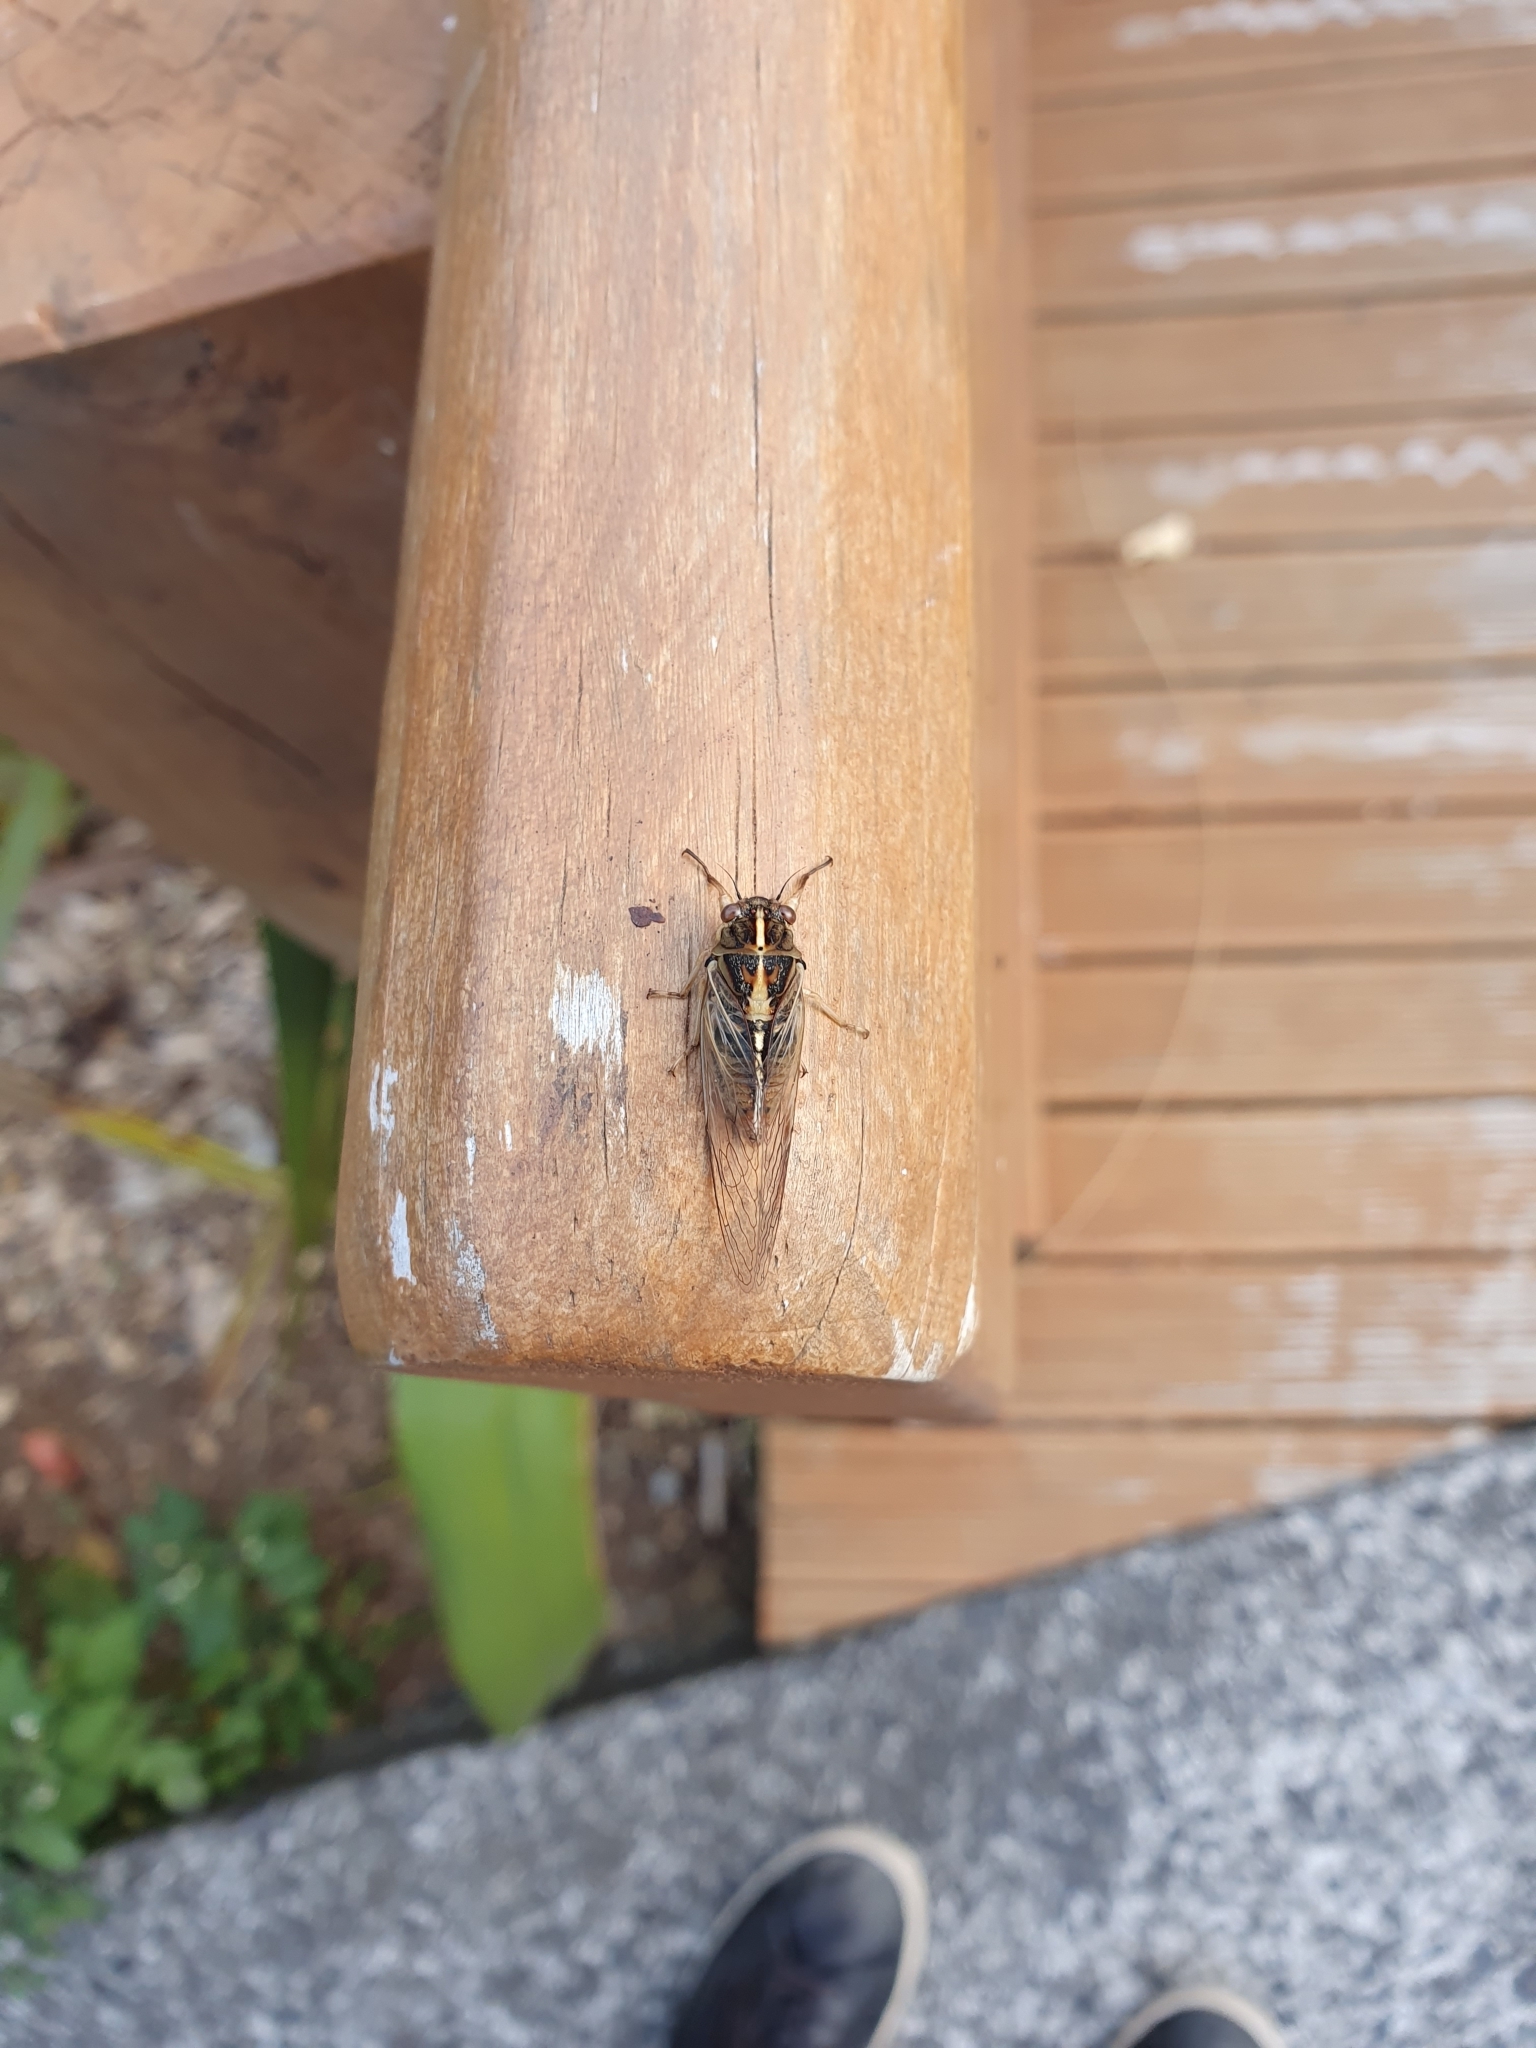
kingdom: Animalia
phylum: Arthropoda
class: Insecta
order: Hemiptera
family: Cicadidae
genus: Kikihia
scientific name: Kikihia muta
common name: Variable cicada
